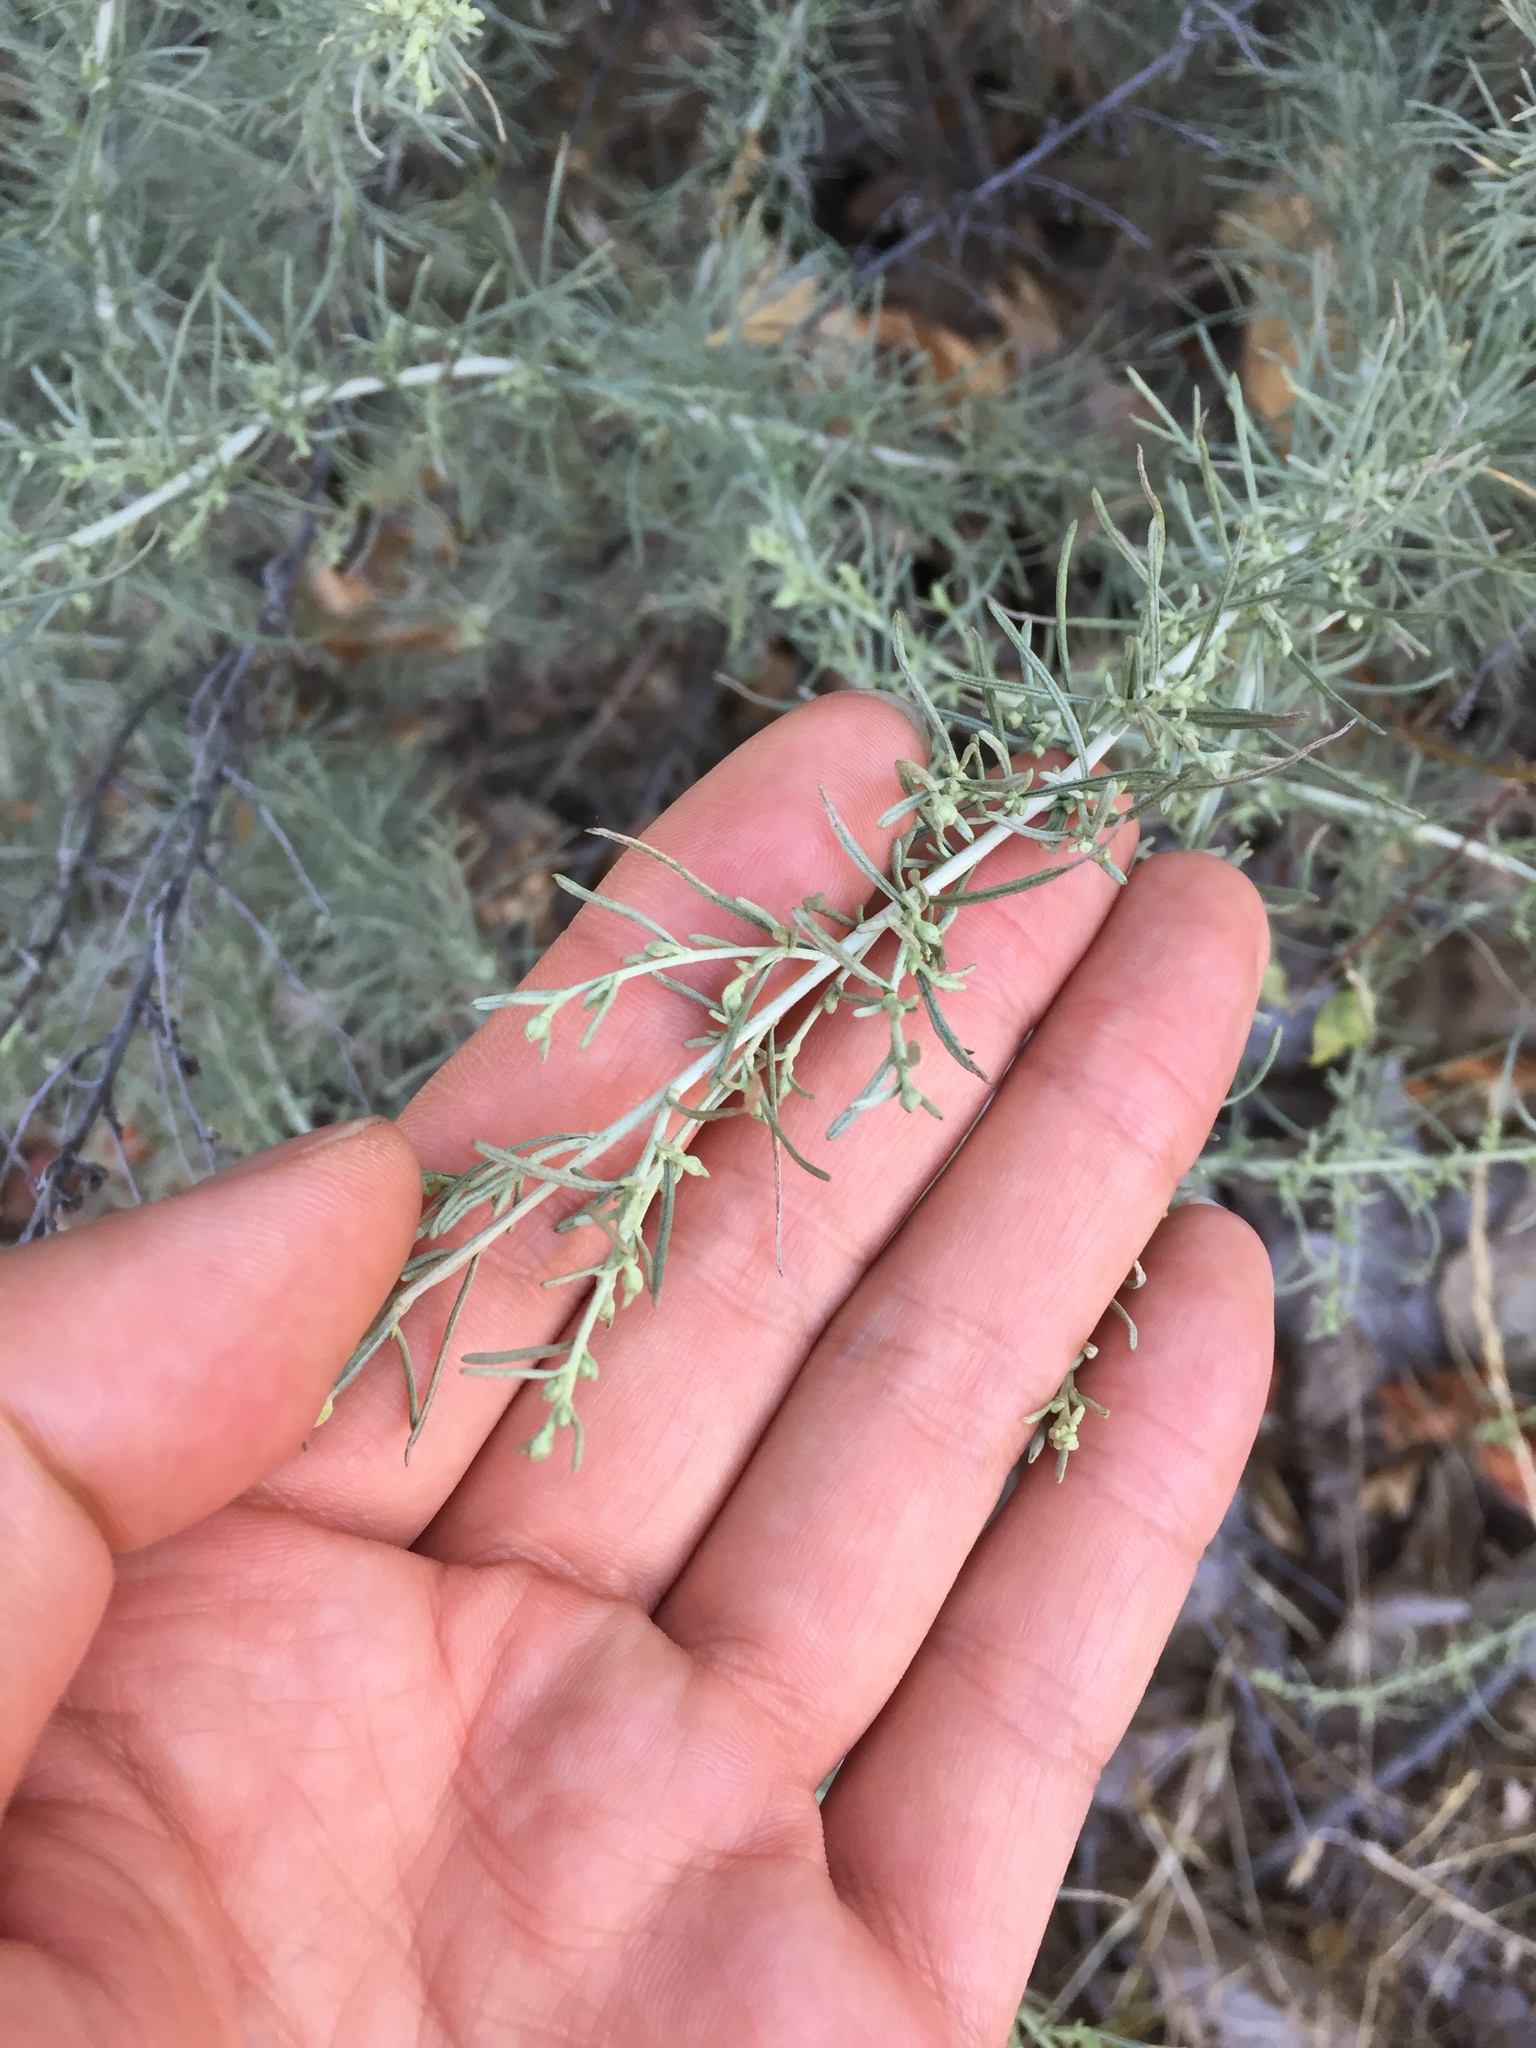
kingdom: Plantae
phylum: Tracheophyta
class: Magnoliopsida
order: Asterales
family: Asteraceae
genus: Artemisia
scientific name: Artemisia californica
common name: California sagebrush
